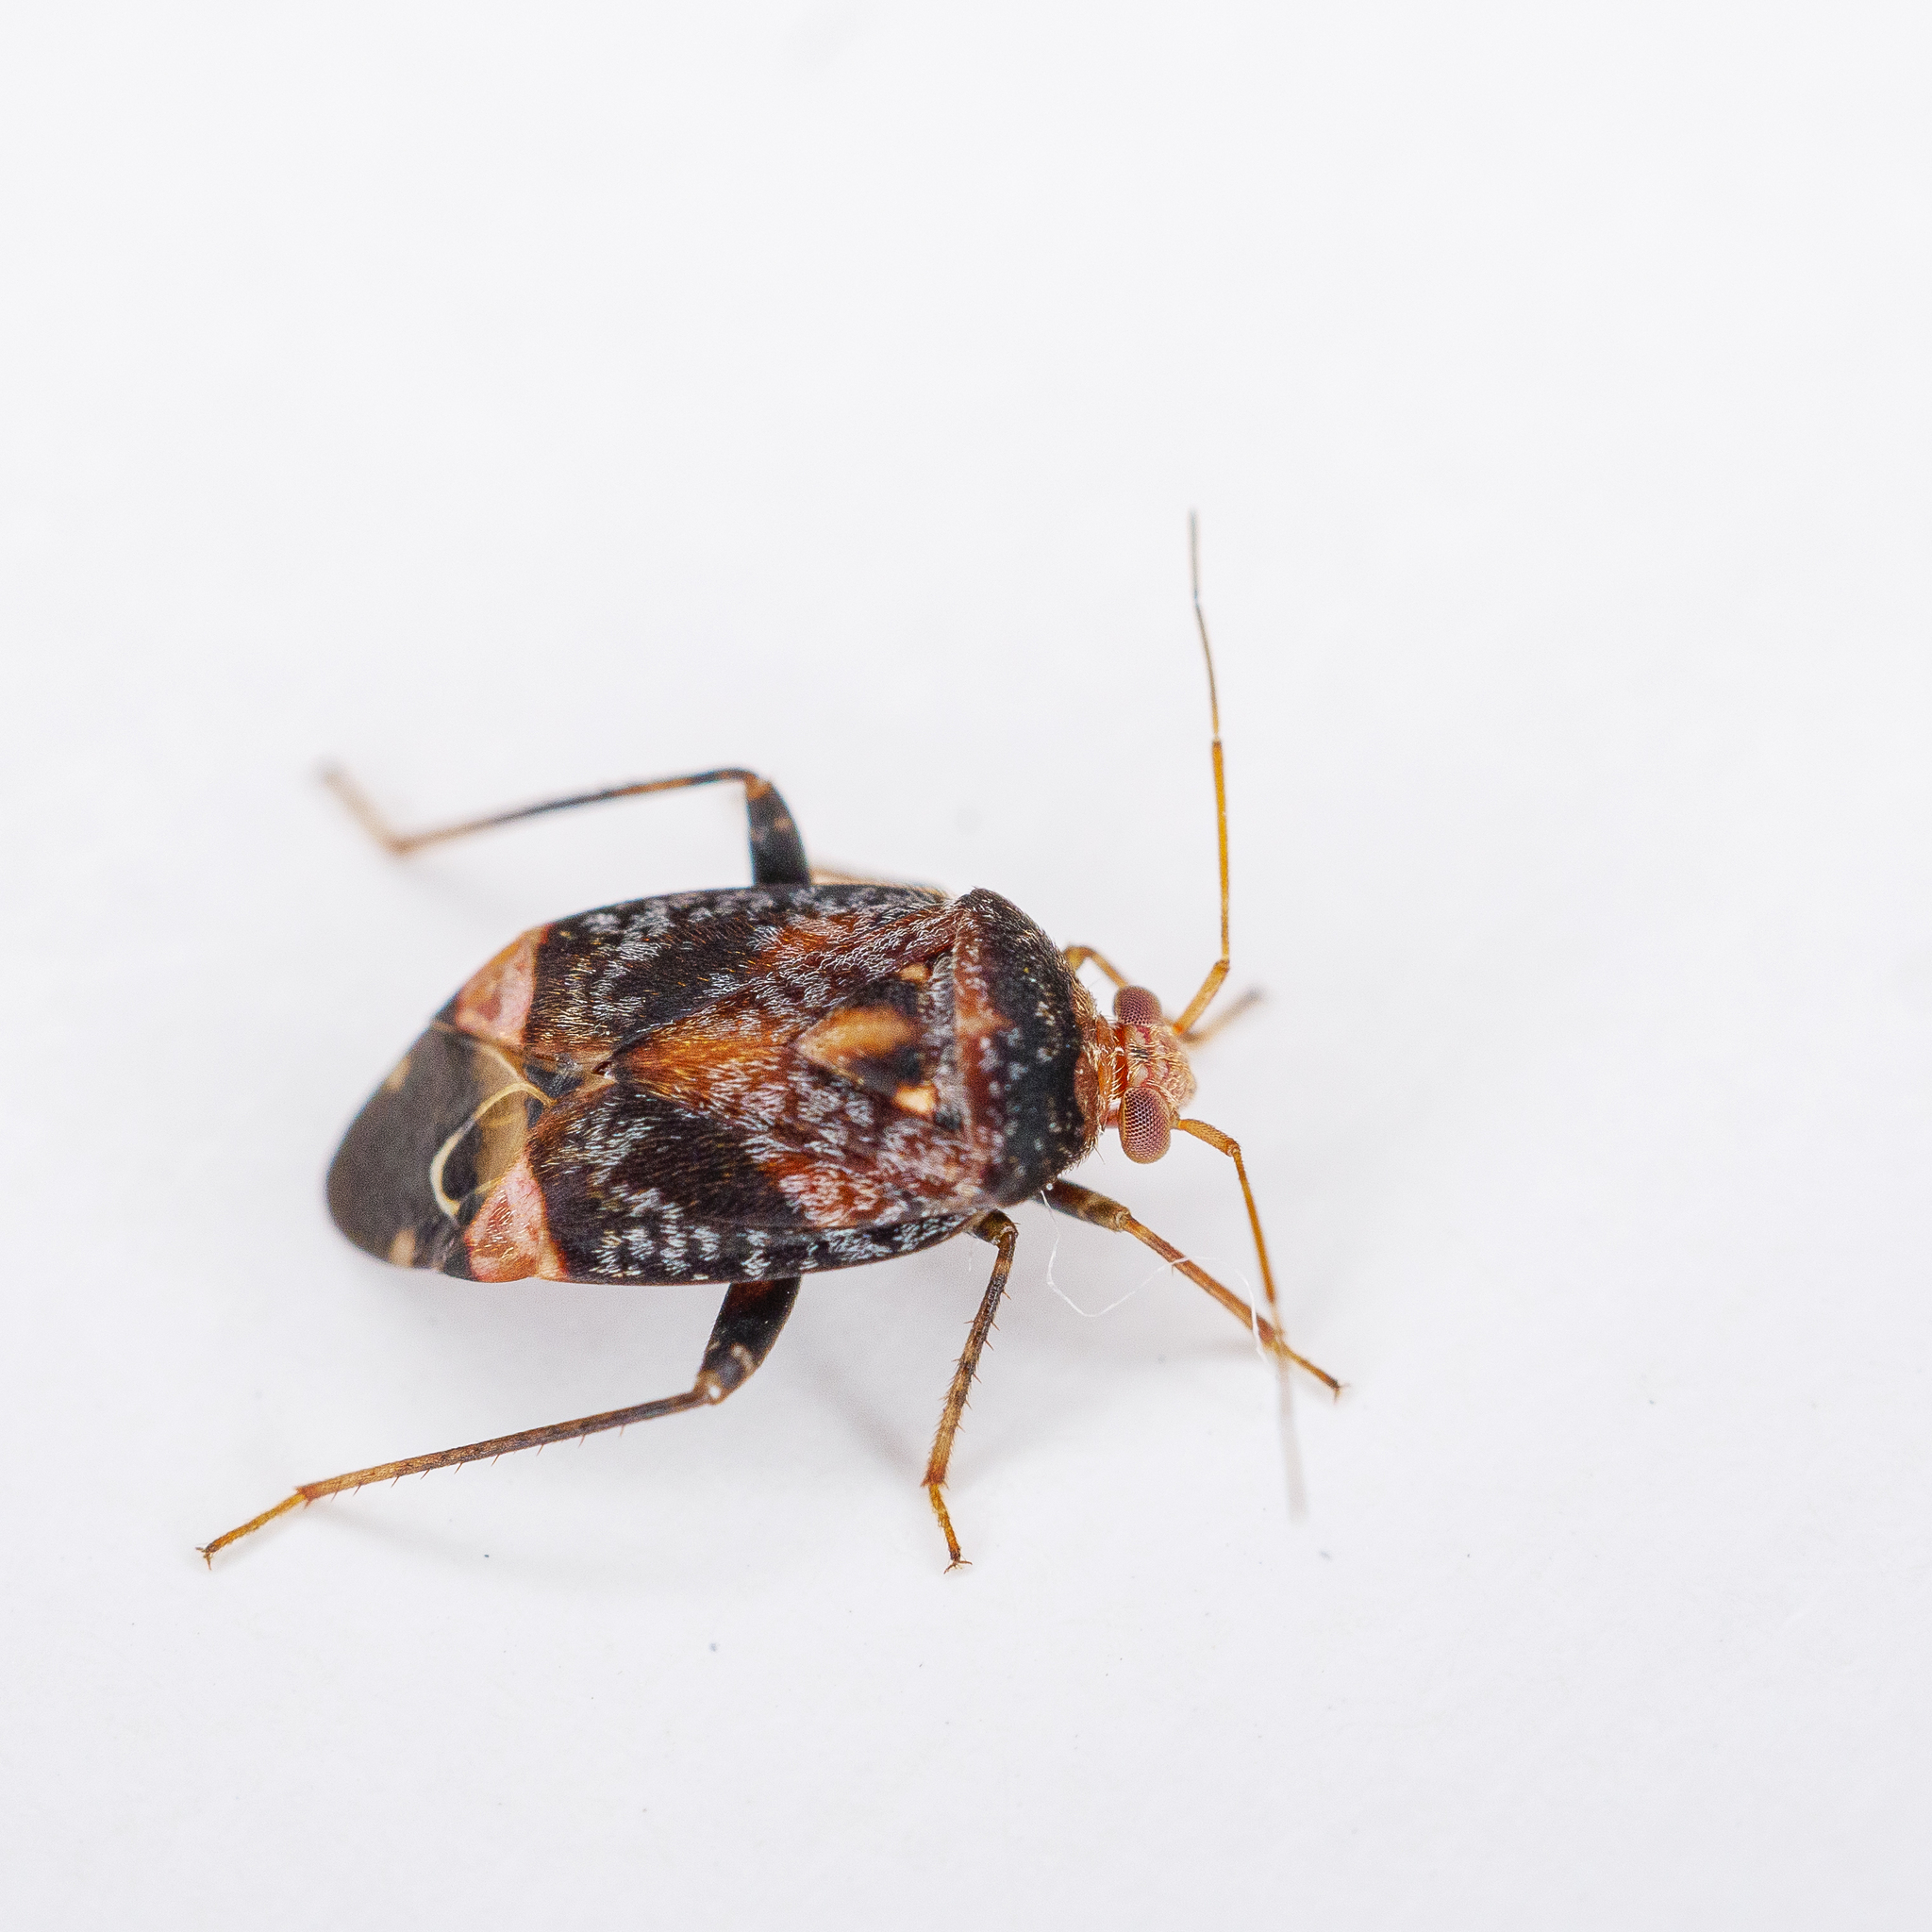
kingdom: Animalia
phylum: Arthropoda
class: Insecta
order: Hemiptera
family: Miridae
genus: Wekamiris
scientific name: Wekamiris auropilosus
